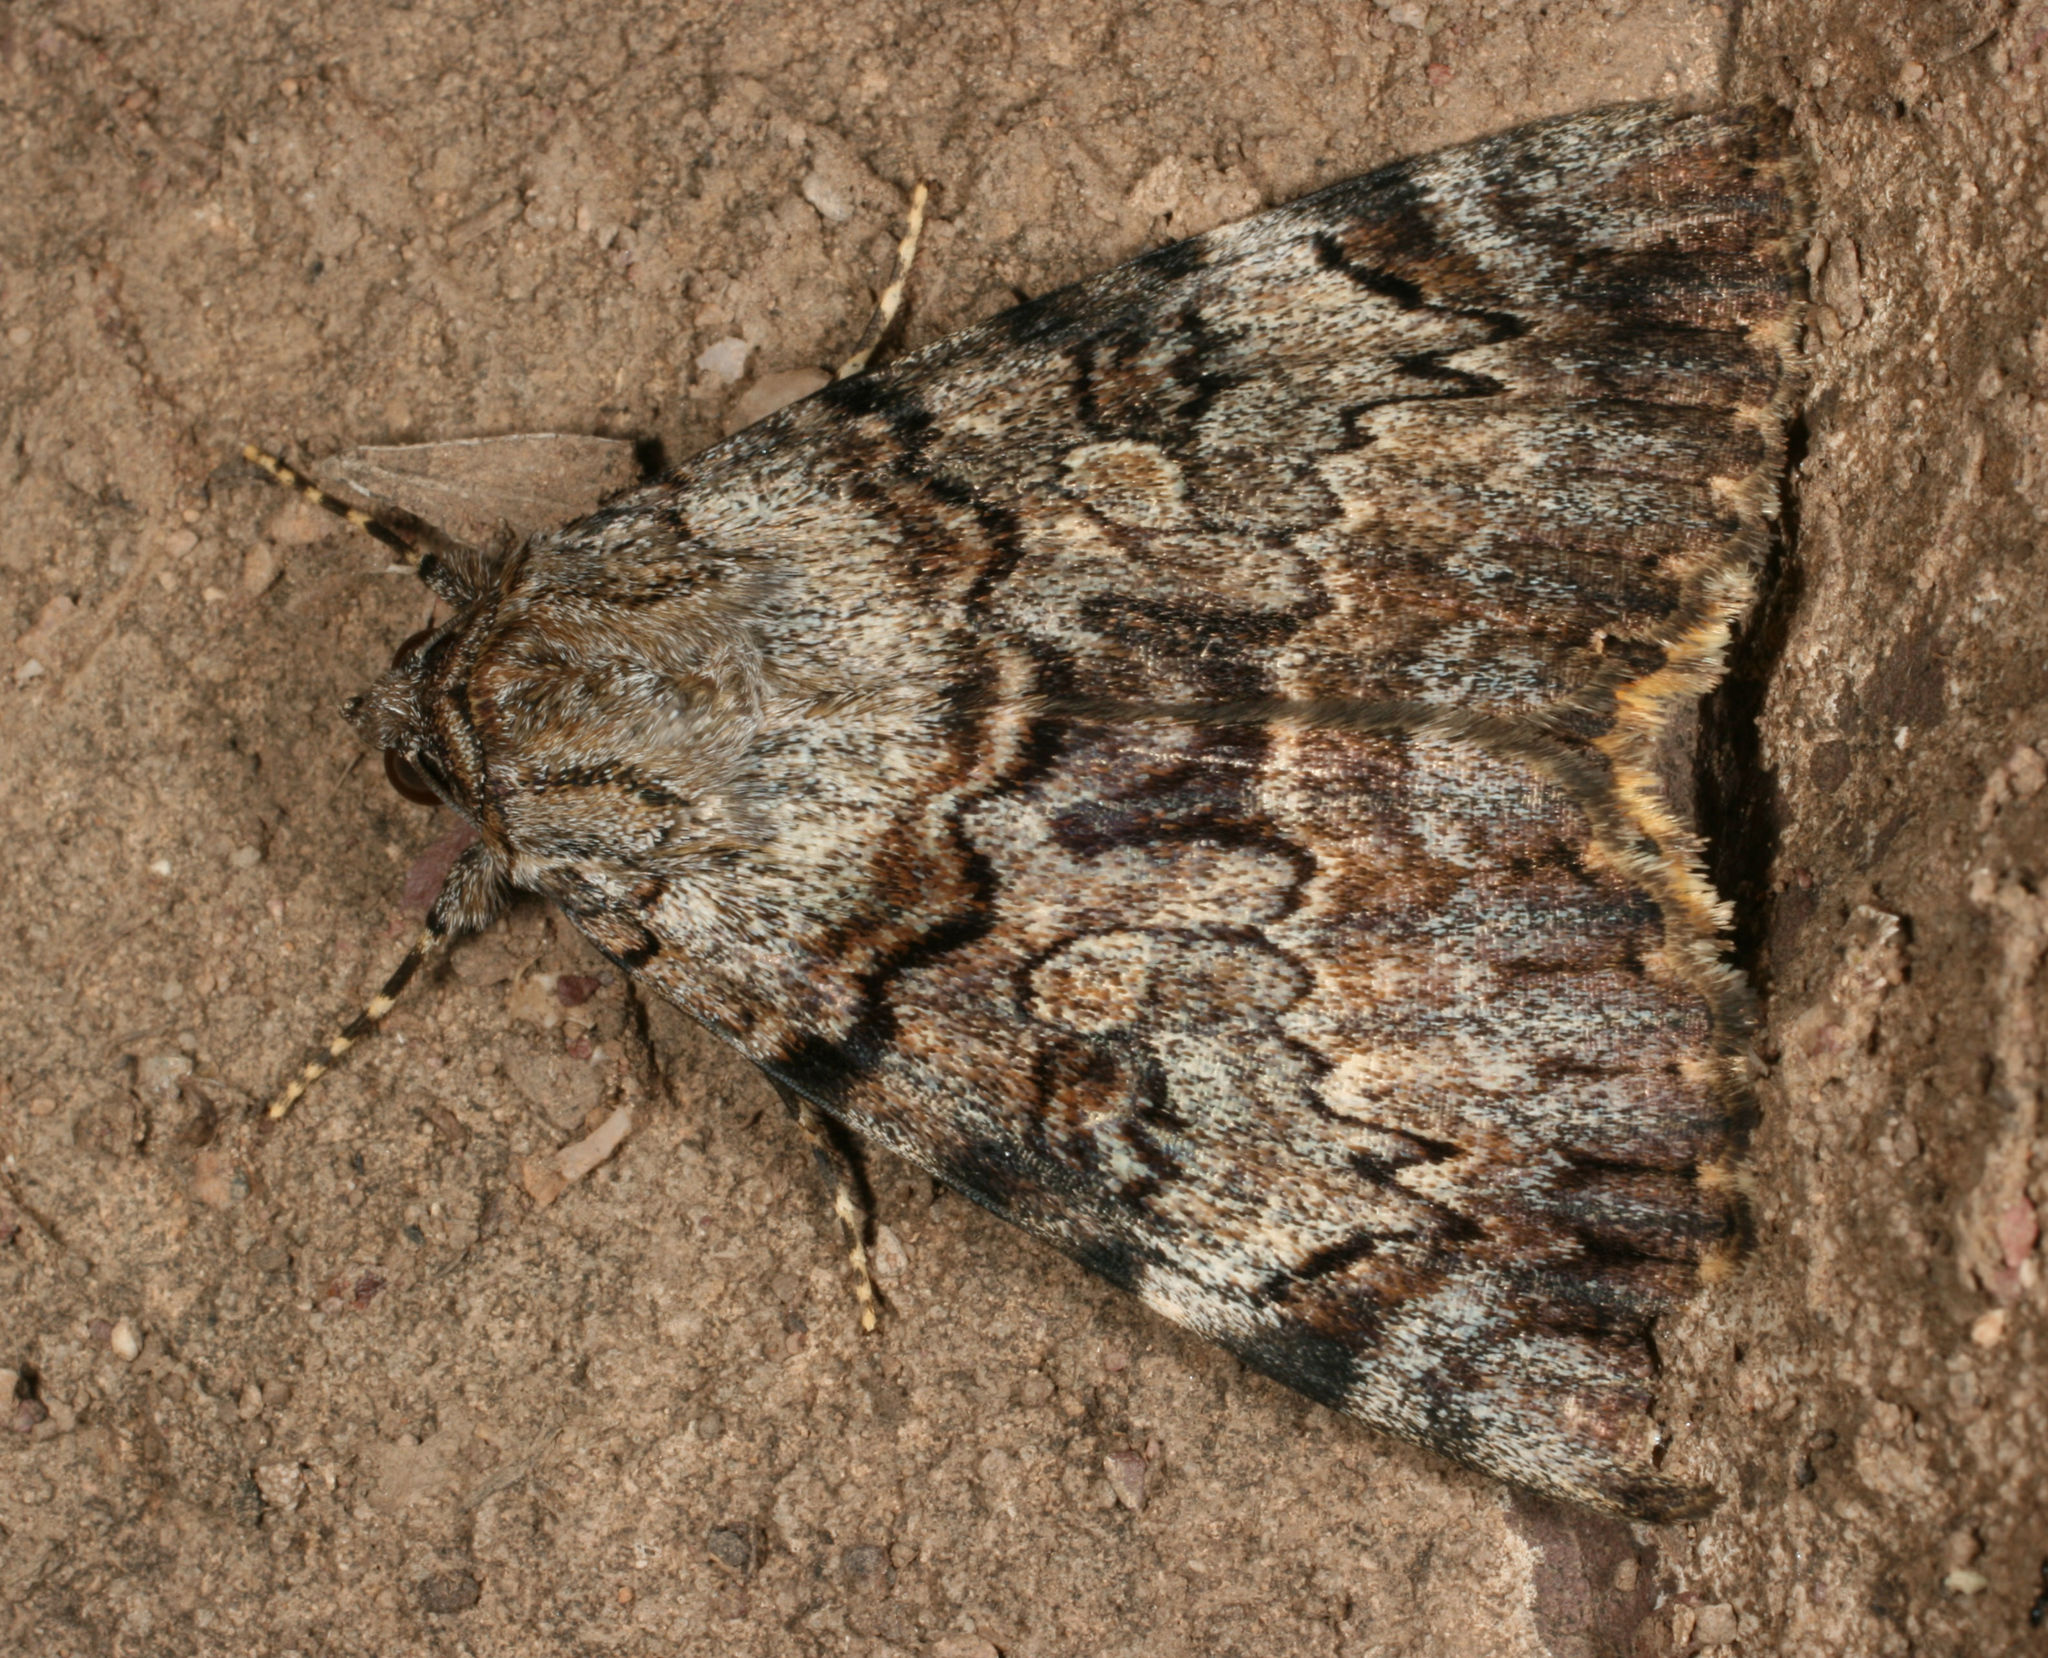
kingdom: Animalia
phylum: Arthropoda
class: Insecta
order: Lepidoptera
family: Erebidae
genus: Catocala
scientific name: Catocala desdemona
